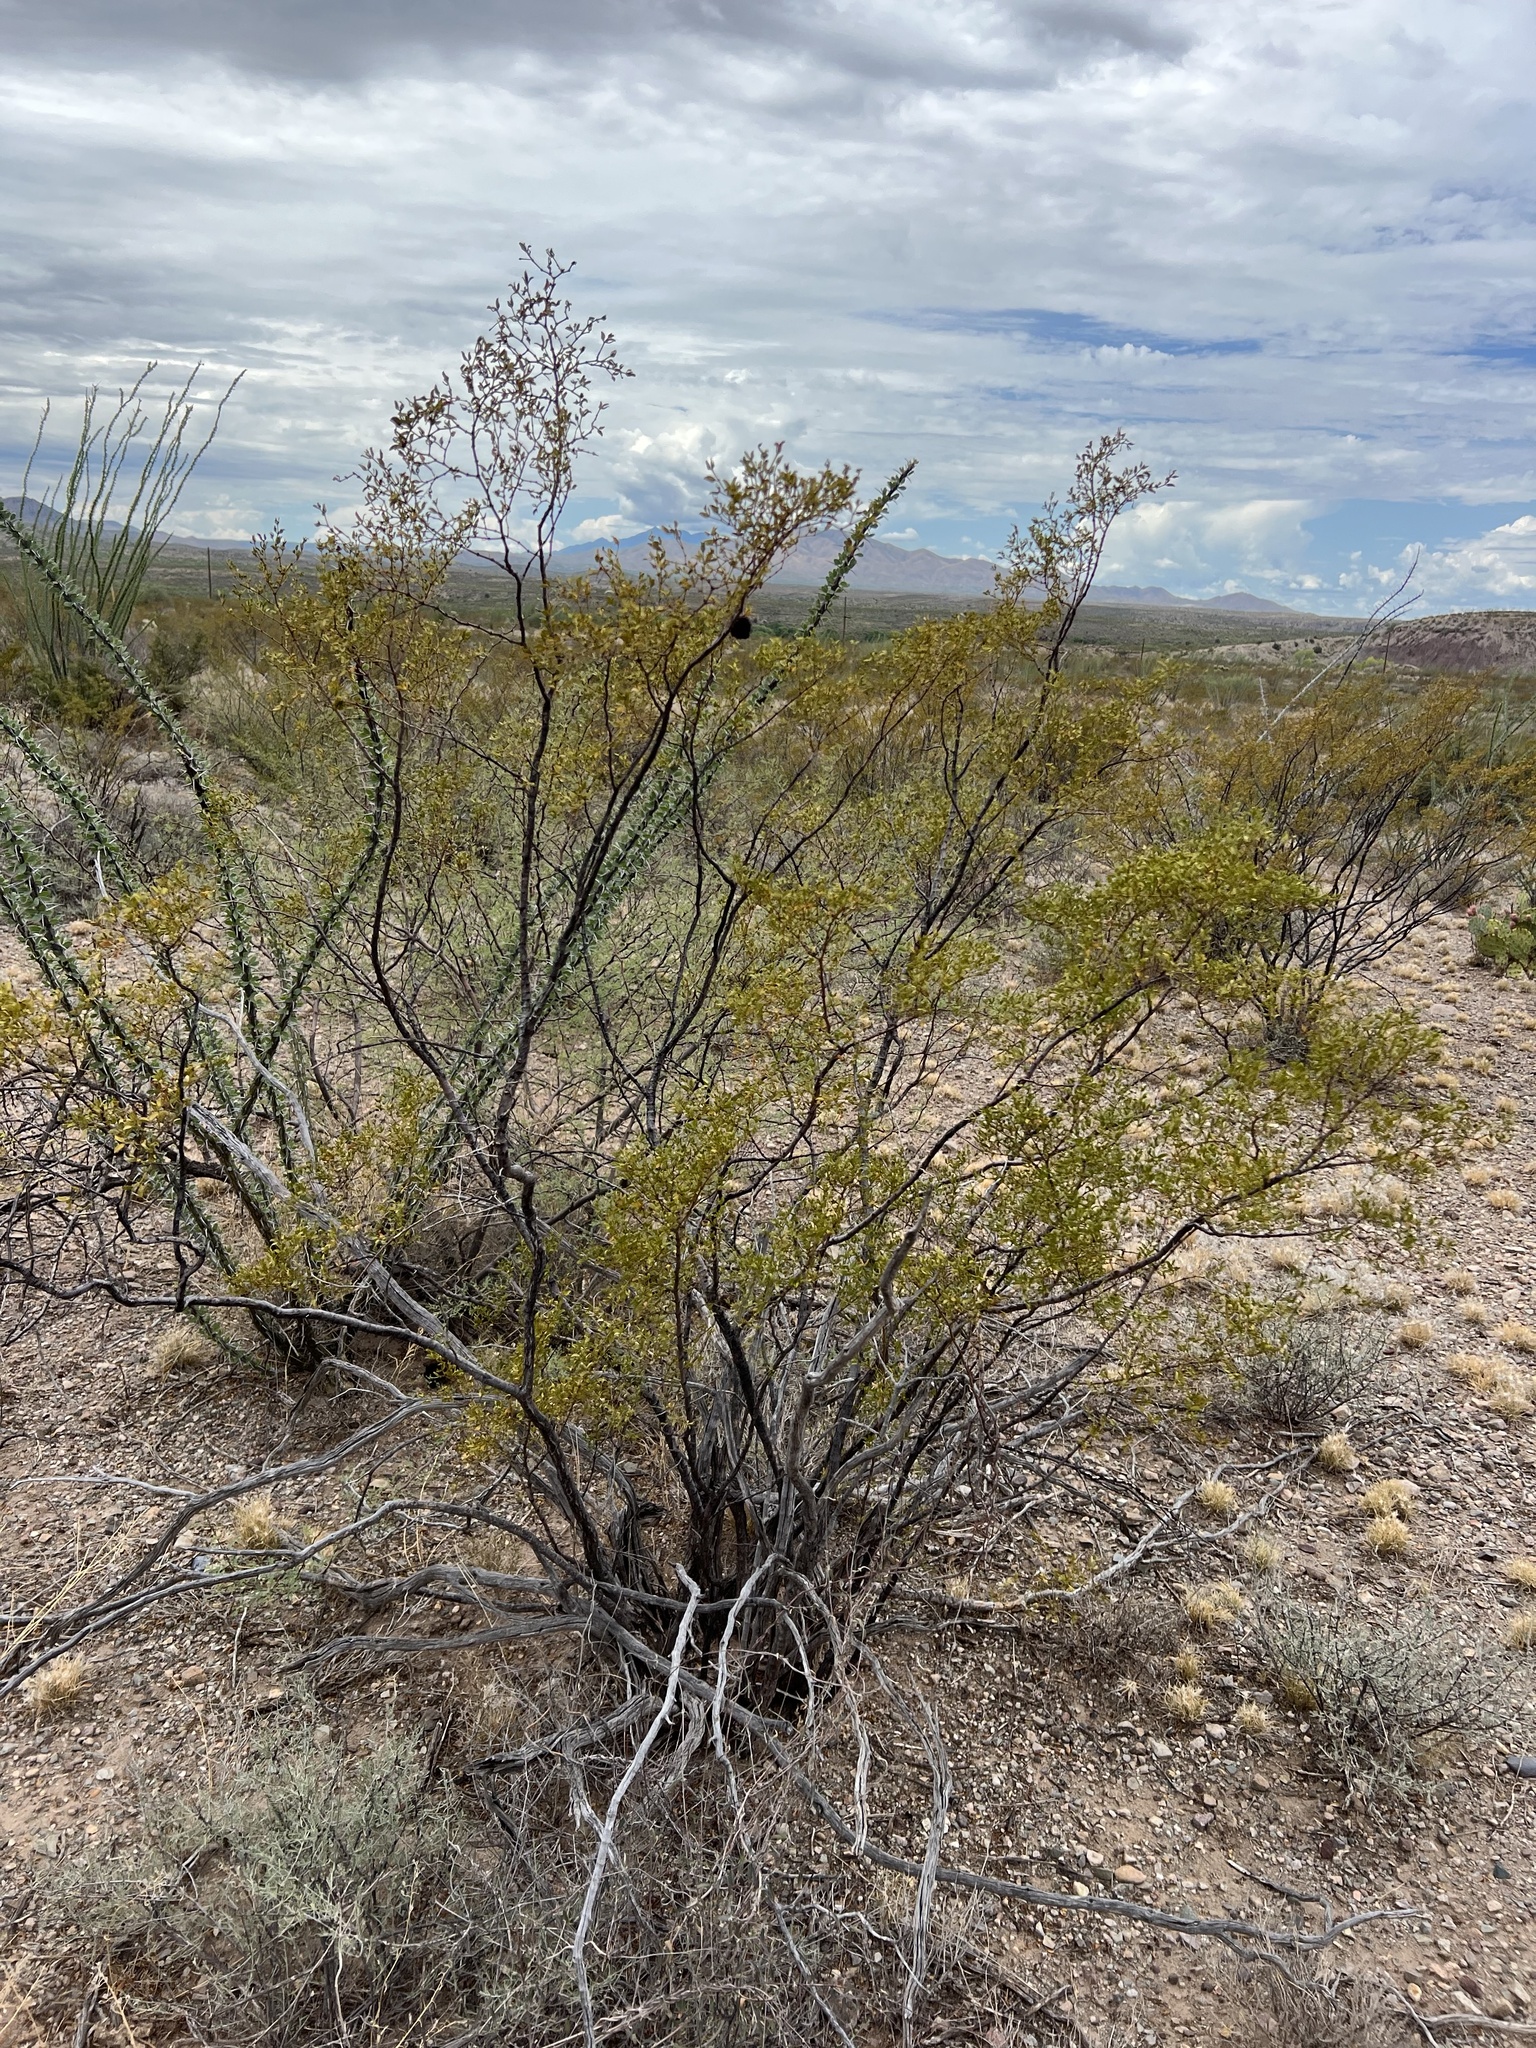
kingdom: Plantae
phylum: Tracheophyta
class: Magnoliopsida
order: Zygophyllales
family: Zygophyllaceae
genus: Larrea
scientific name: Larrea tridentata
